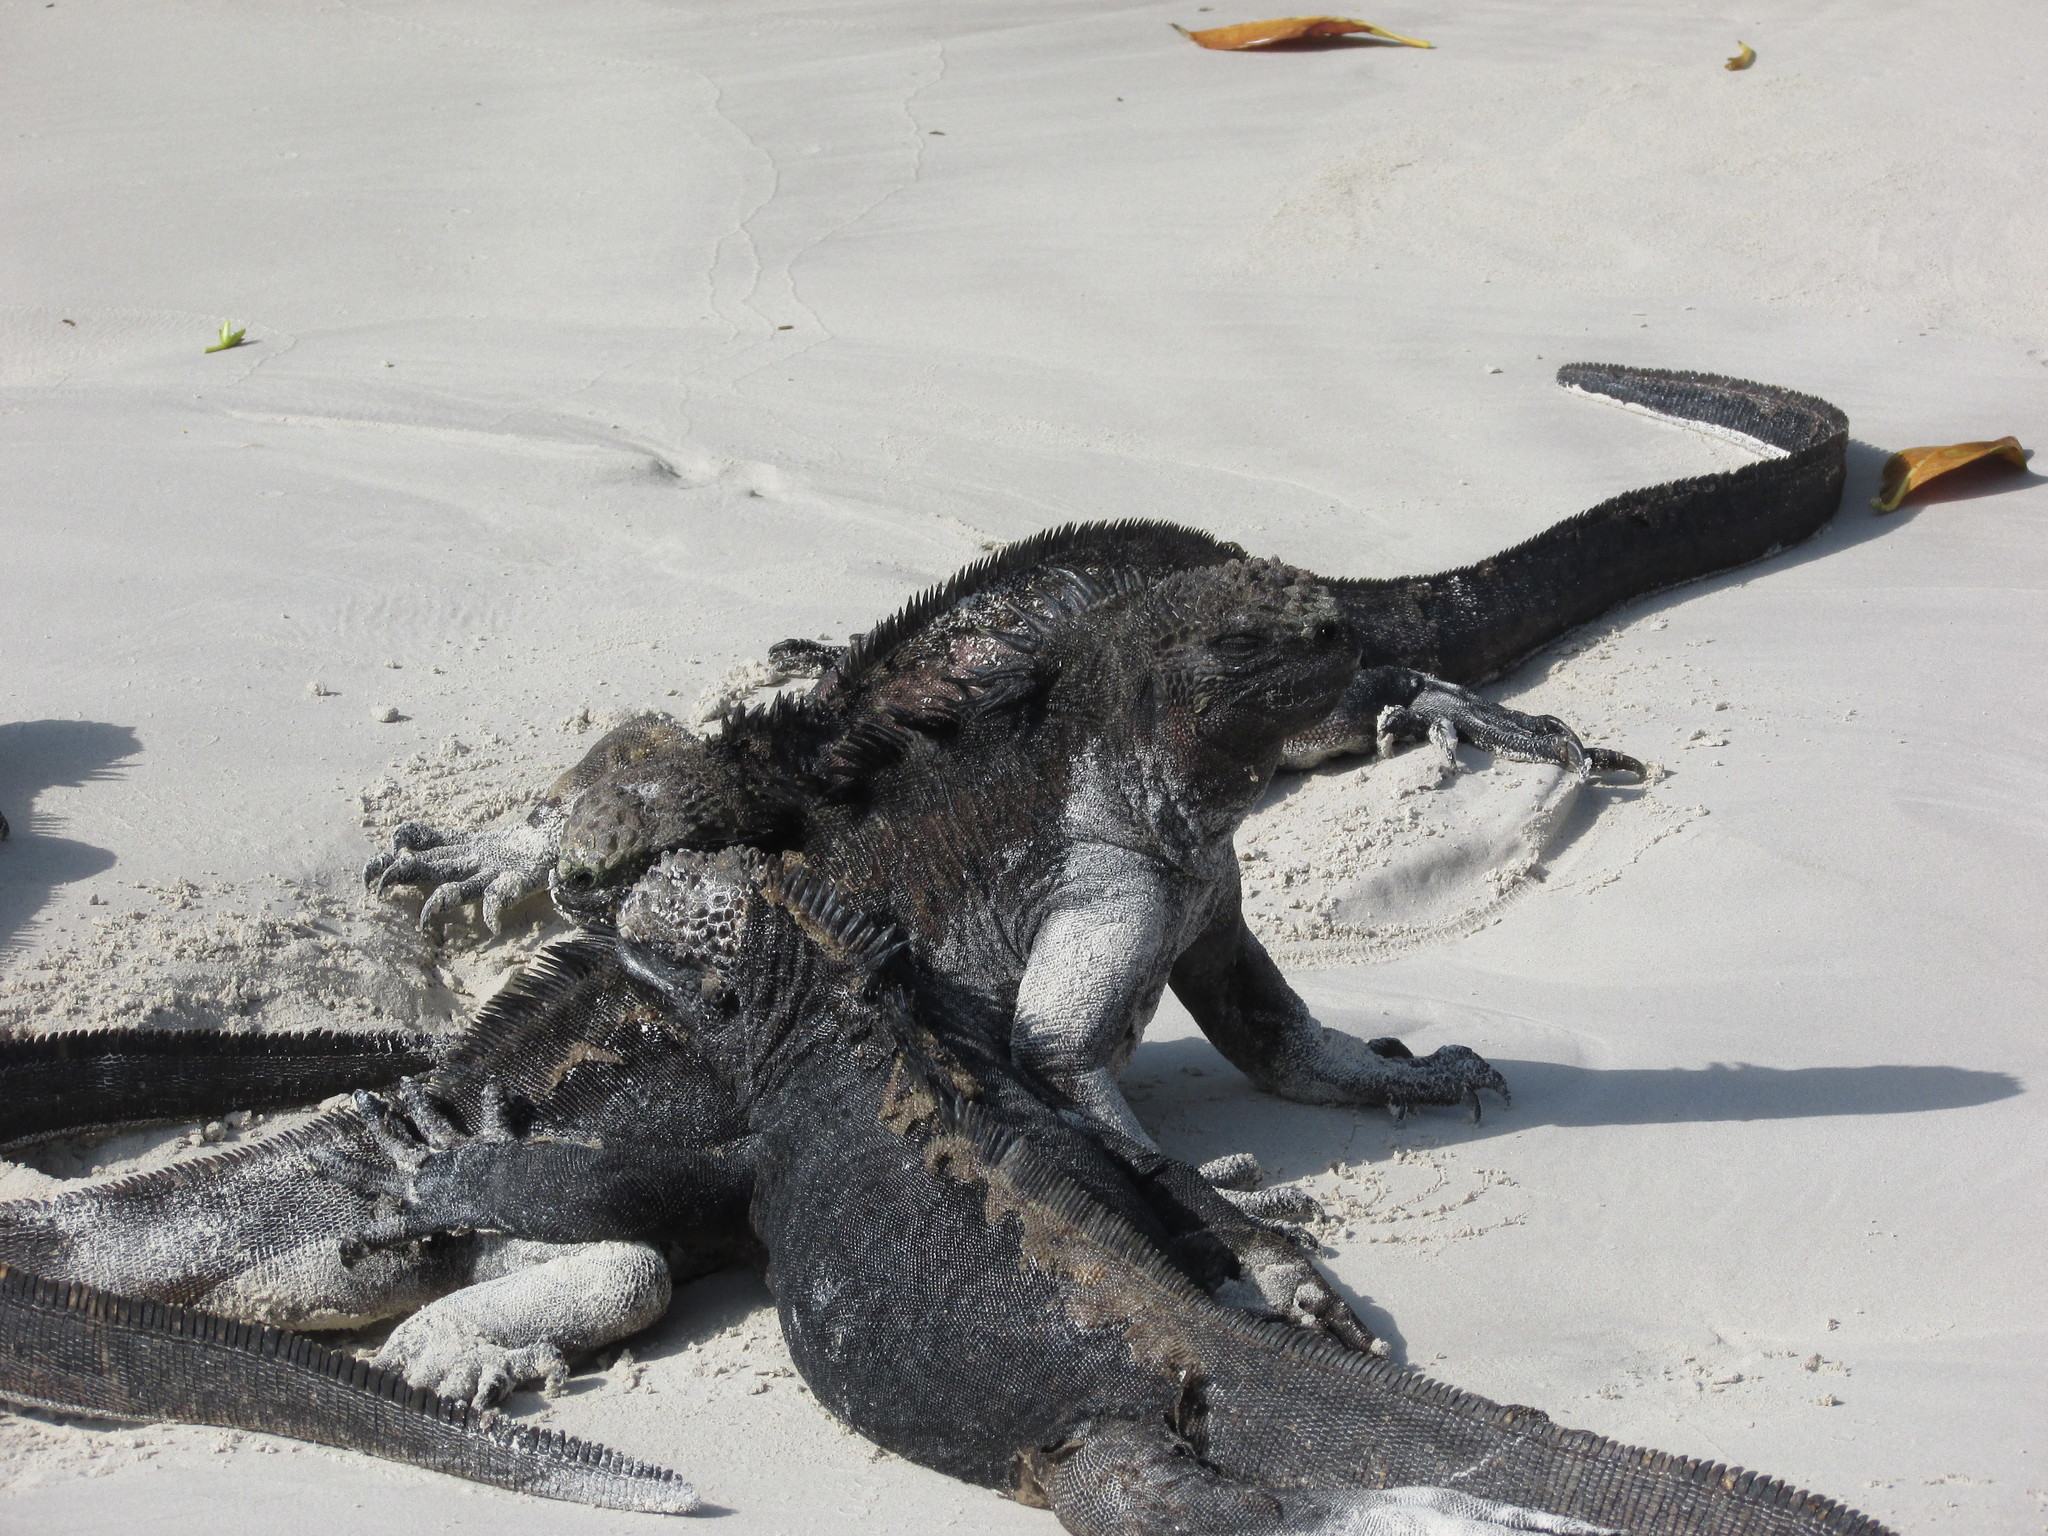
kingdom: Animalia
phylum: Chordata
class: Squamata
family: Iguanidae
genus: Amblyrhynchus
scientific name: Amblyrhynchus cristatus
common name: Marine iguana
